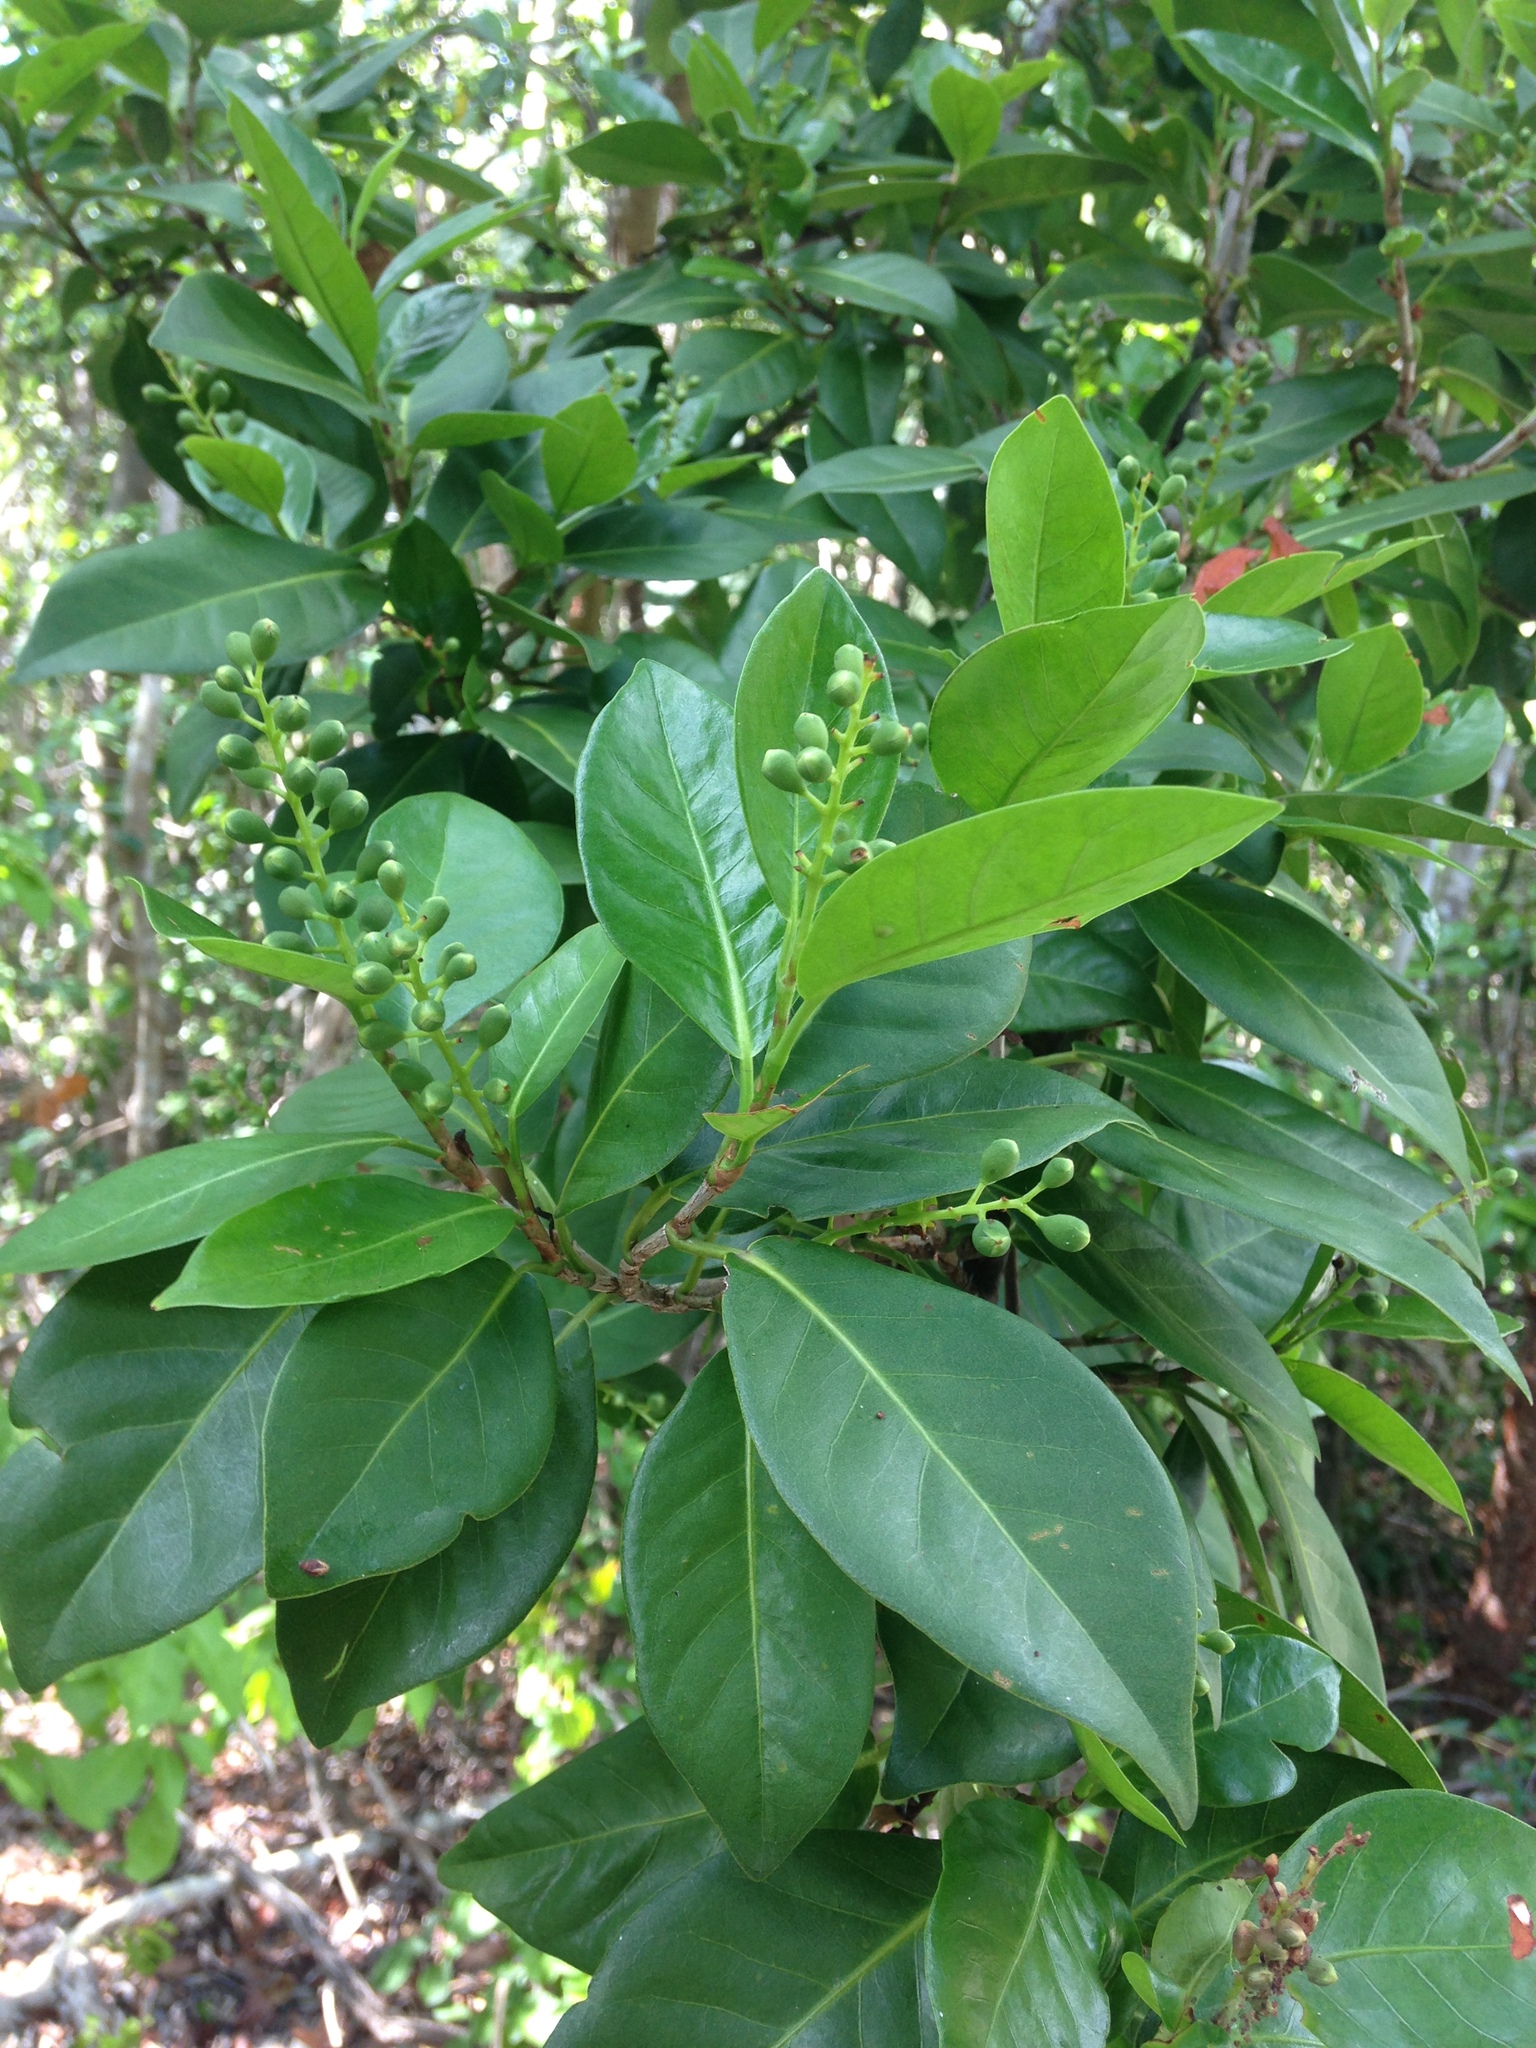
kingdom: Plantae
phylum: Tracheophyta
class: Magnoliopsida
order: Caryophyllales
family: Polygonaceae
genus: Coccoloba
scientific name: Coccoloba diversifolia
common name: Pigeon-plum
